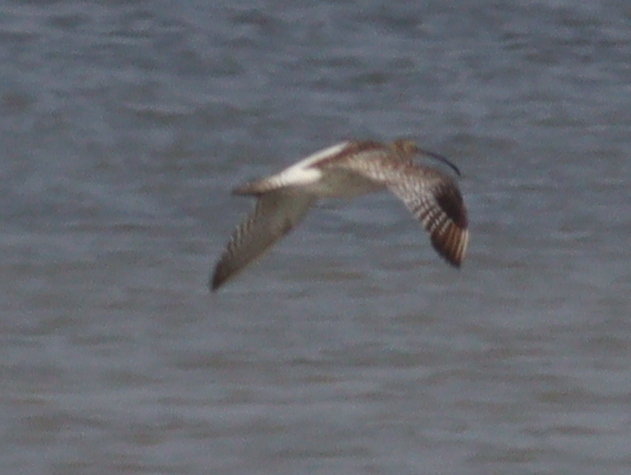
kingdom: Animalia
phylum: Chordata
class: Aves
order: Charadriiformes
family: Scolopacidae
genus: Numenius
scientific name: Numenius arquata
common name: Eurasian curlew
